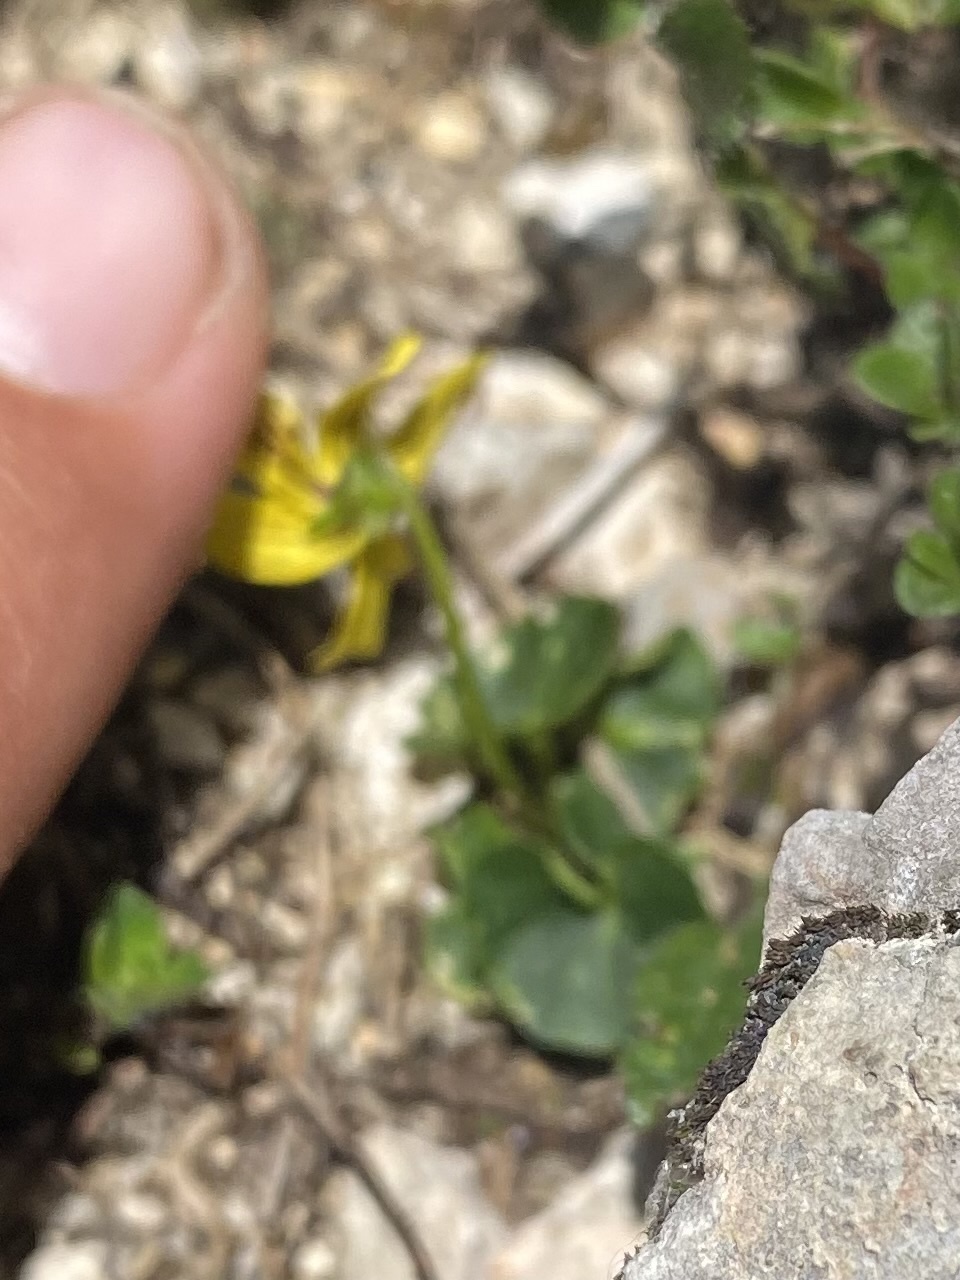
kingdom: Plantae
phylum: Tracheophyta
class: Magnoliopsida
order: Malpighiales
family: Violaceae
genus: Viola
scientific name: Viola caucasica
